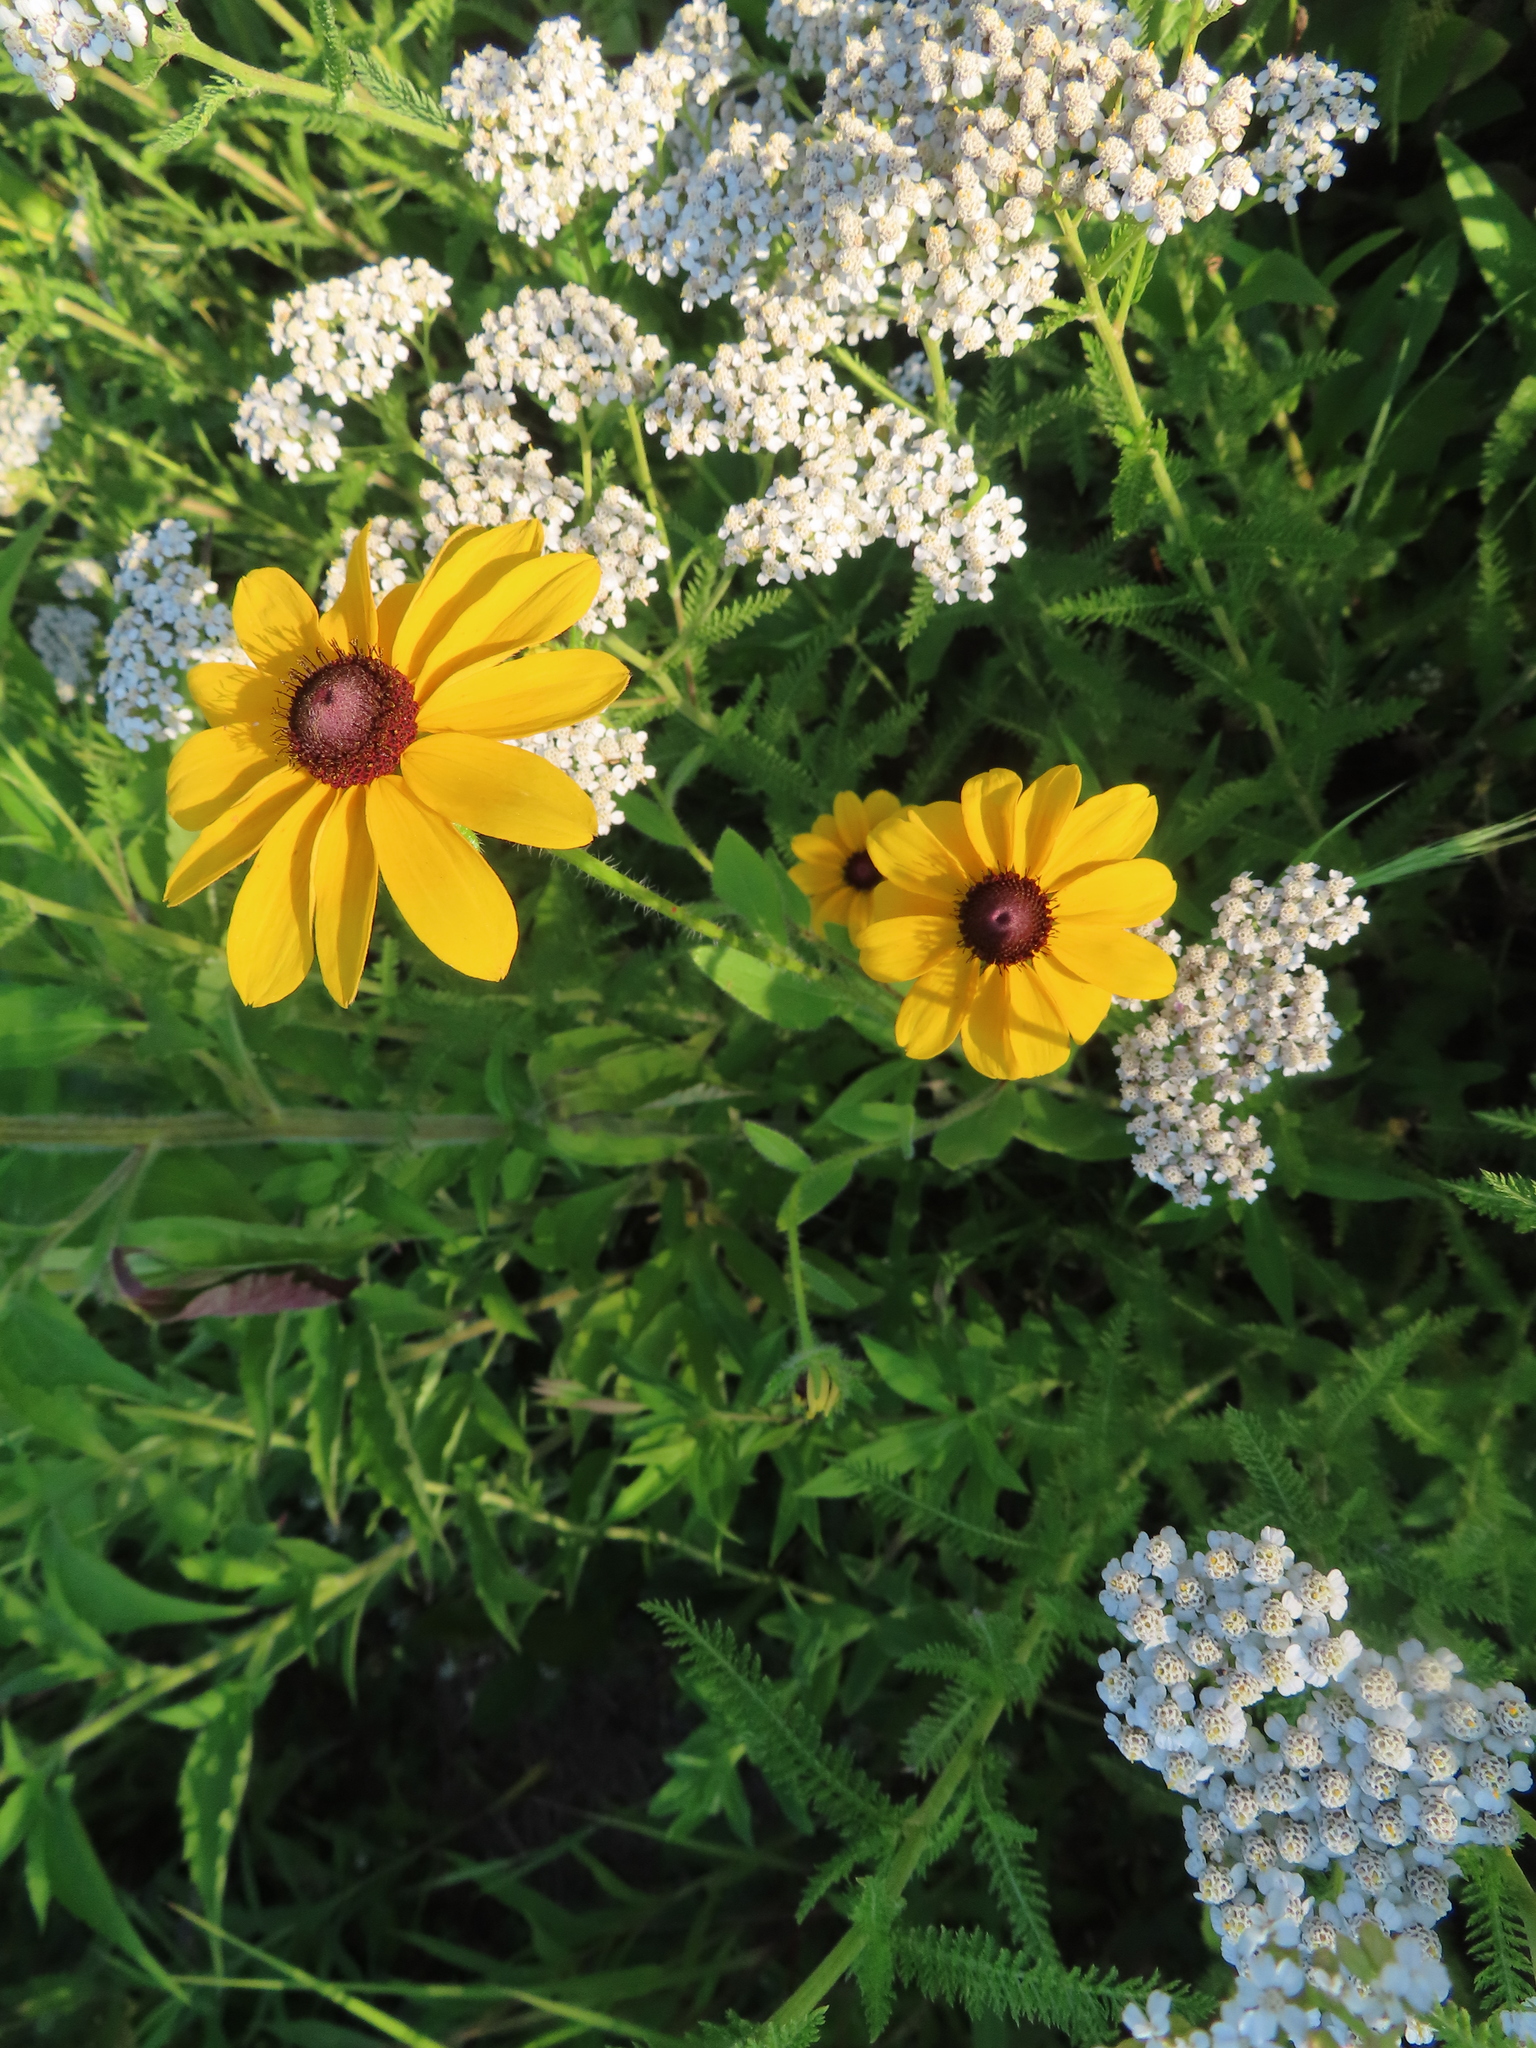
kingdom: Plantae
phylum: Tracheophyta
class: Magnoliopsida
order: Asterales
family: Asteraceae
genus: Rudbeckia
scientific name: Rudbeckia hirta
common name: Black-eyed-susan
